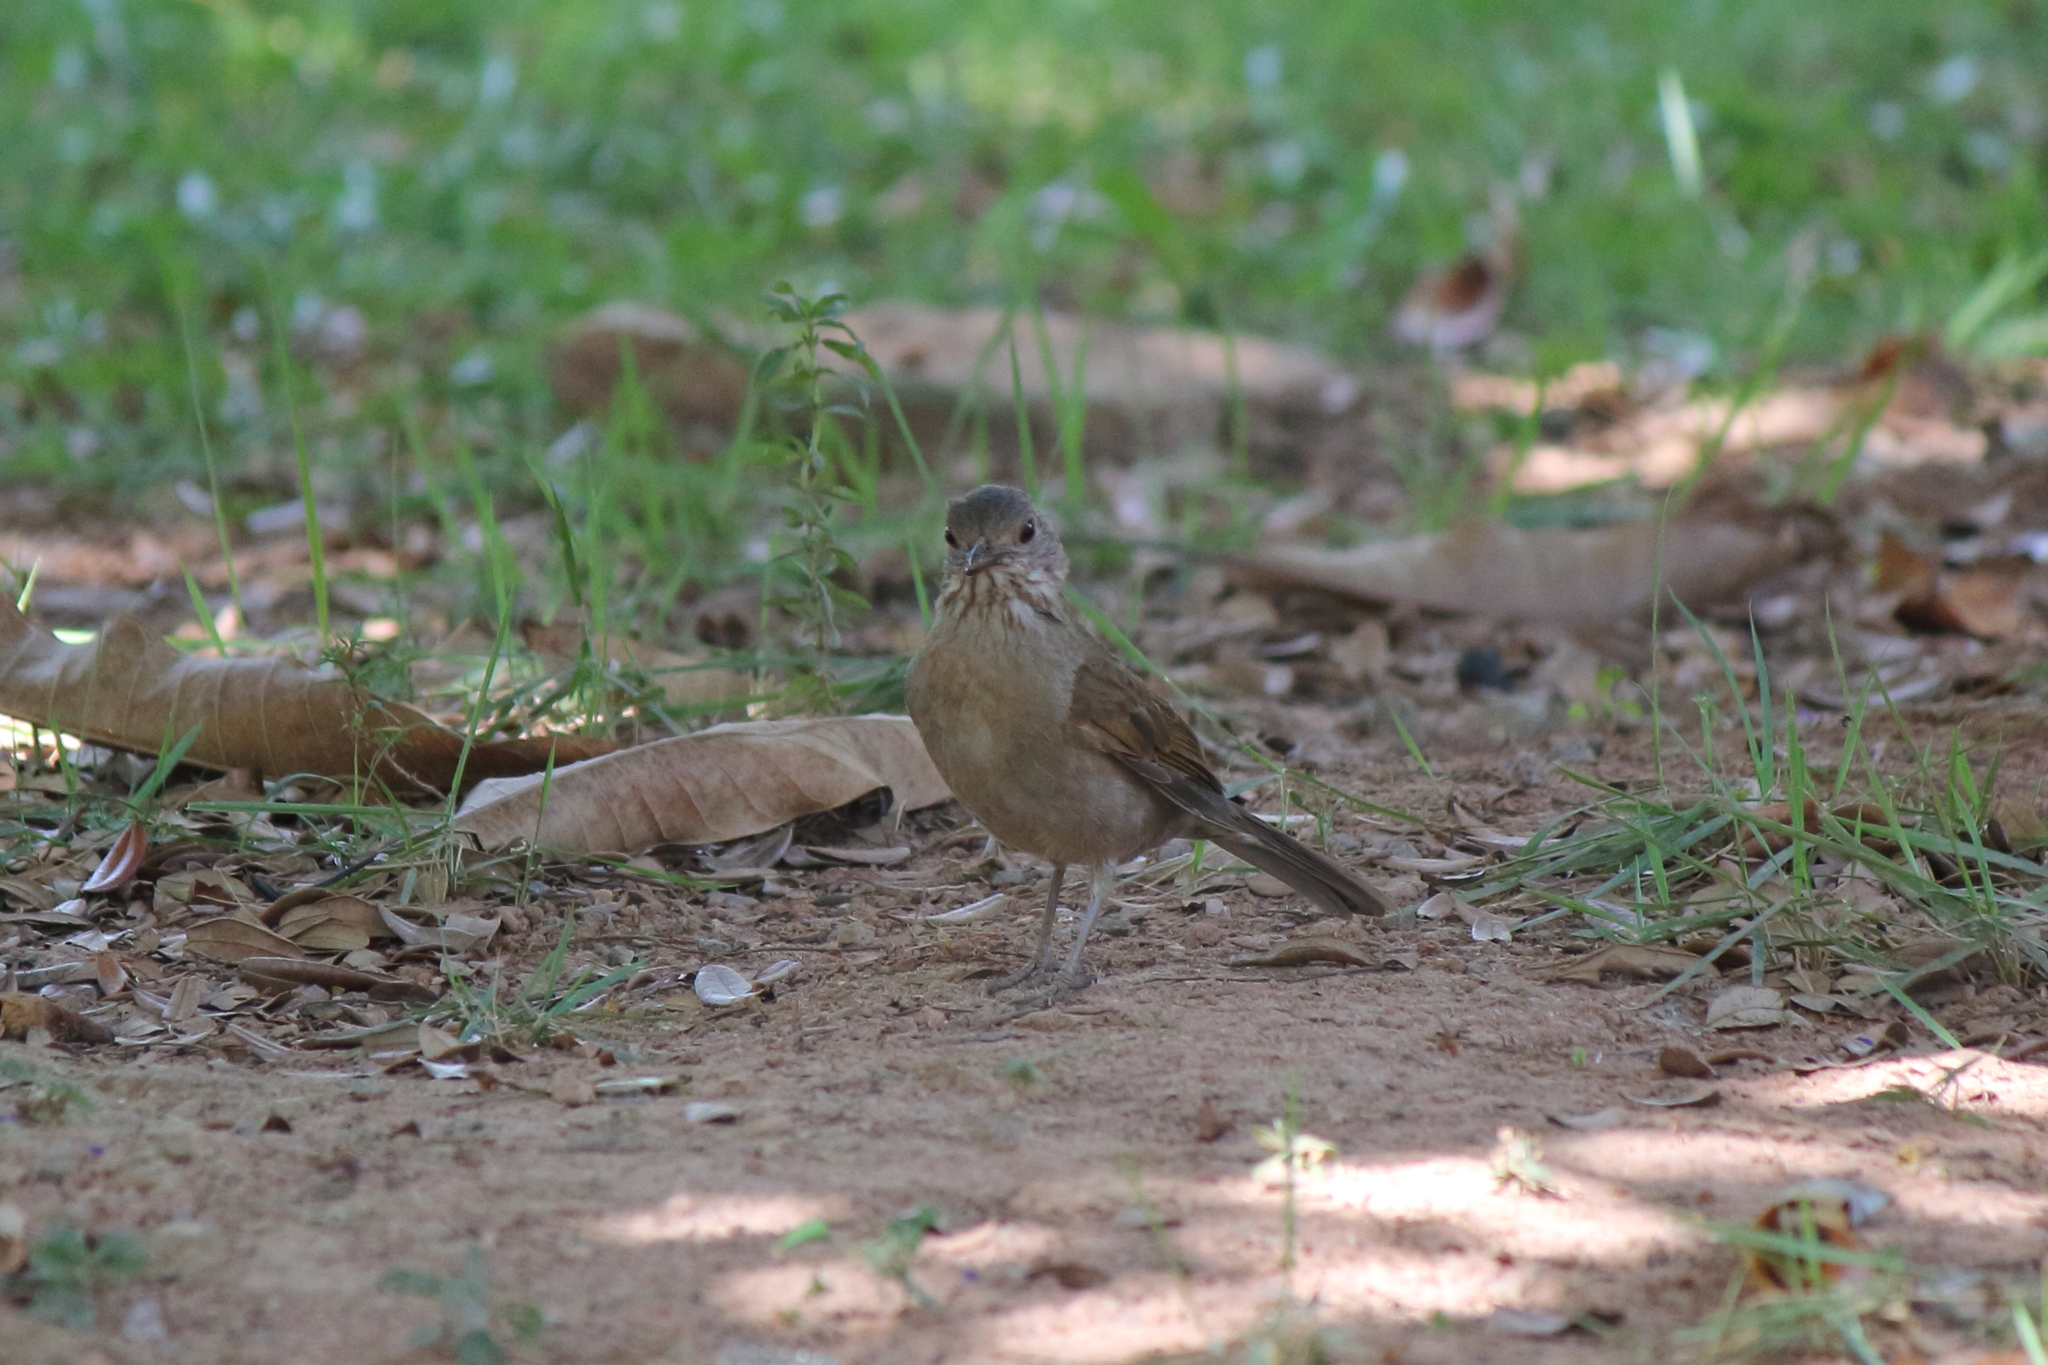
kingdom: Animalia
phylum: Chordata
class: Aves
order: Passeriformes
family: Turdidae
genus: Turdus
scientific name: Turdus leucomelas
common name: Pale-breasted thrush
